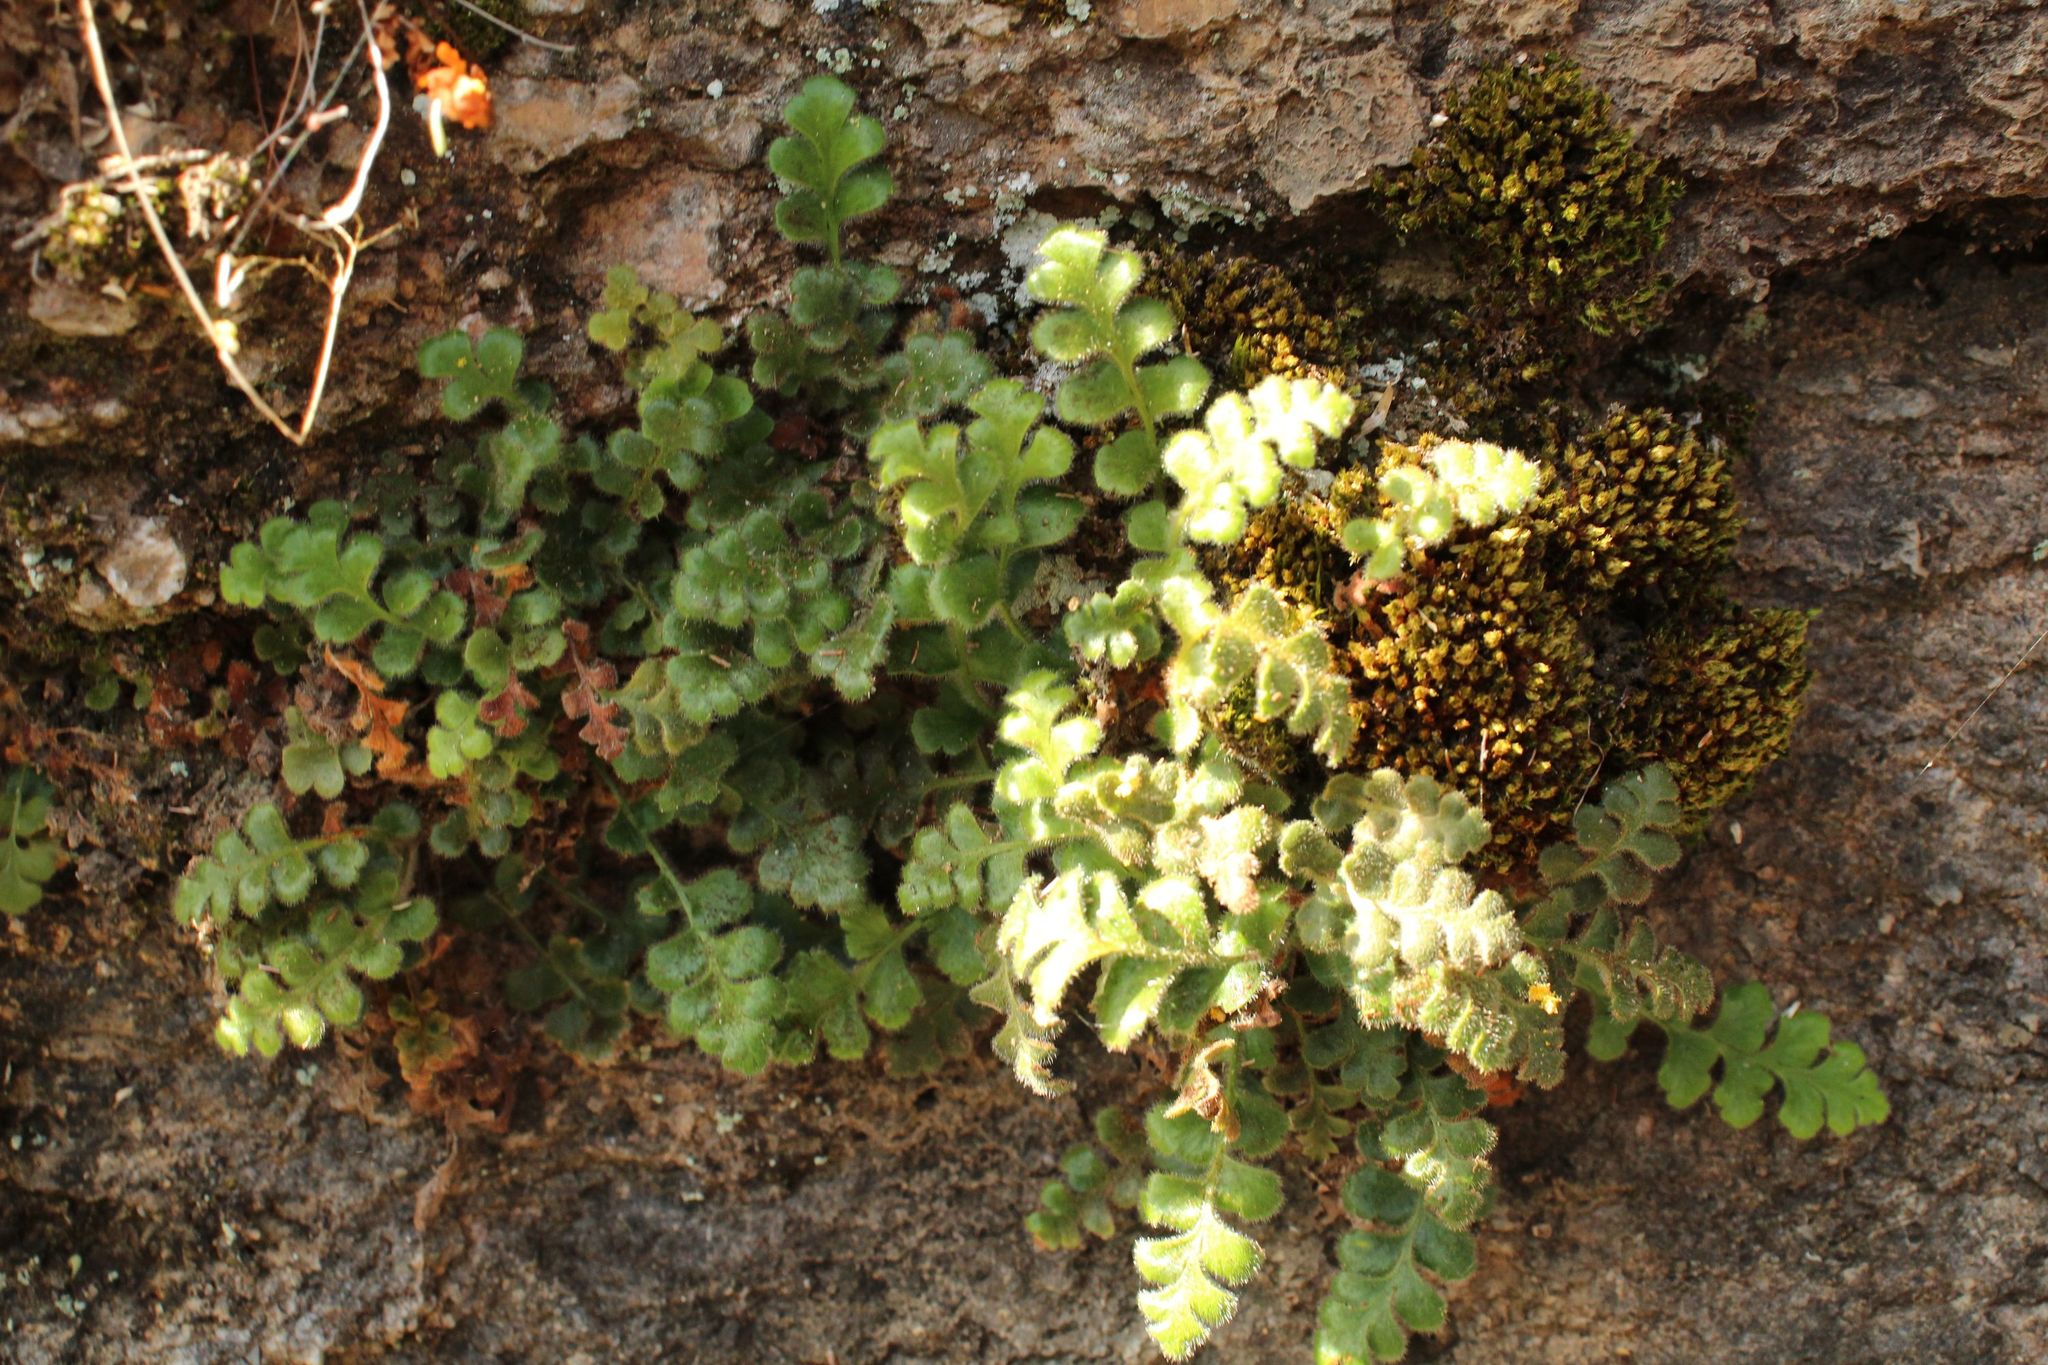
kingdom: Plantae
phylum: Tracheophyta
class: Polypodiopsida
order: Polypodiales
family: Aspleniaceae
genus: Asplenium
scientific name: Asplenium subglandulosum
